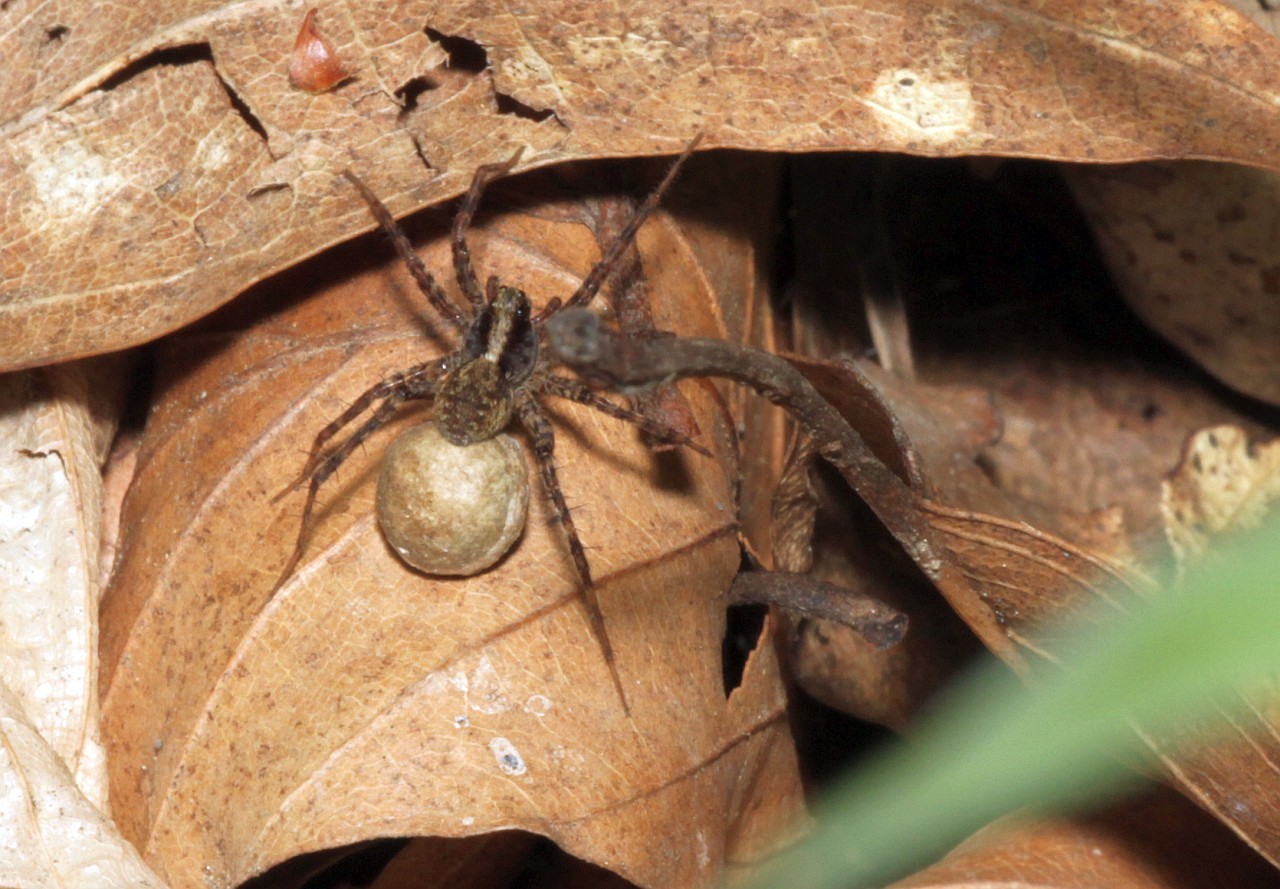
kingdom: Animalia
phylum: Arthropoda
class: Arachnida
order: Araneae
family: Lycosidae
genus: Pardosa
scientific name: Pardosa
